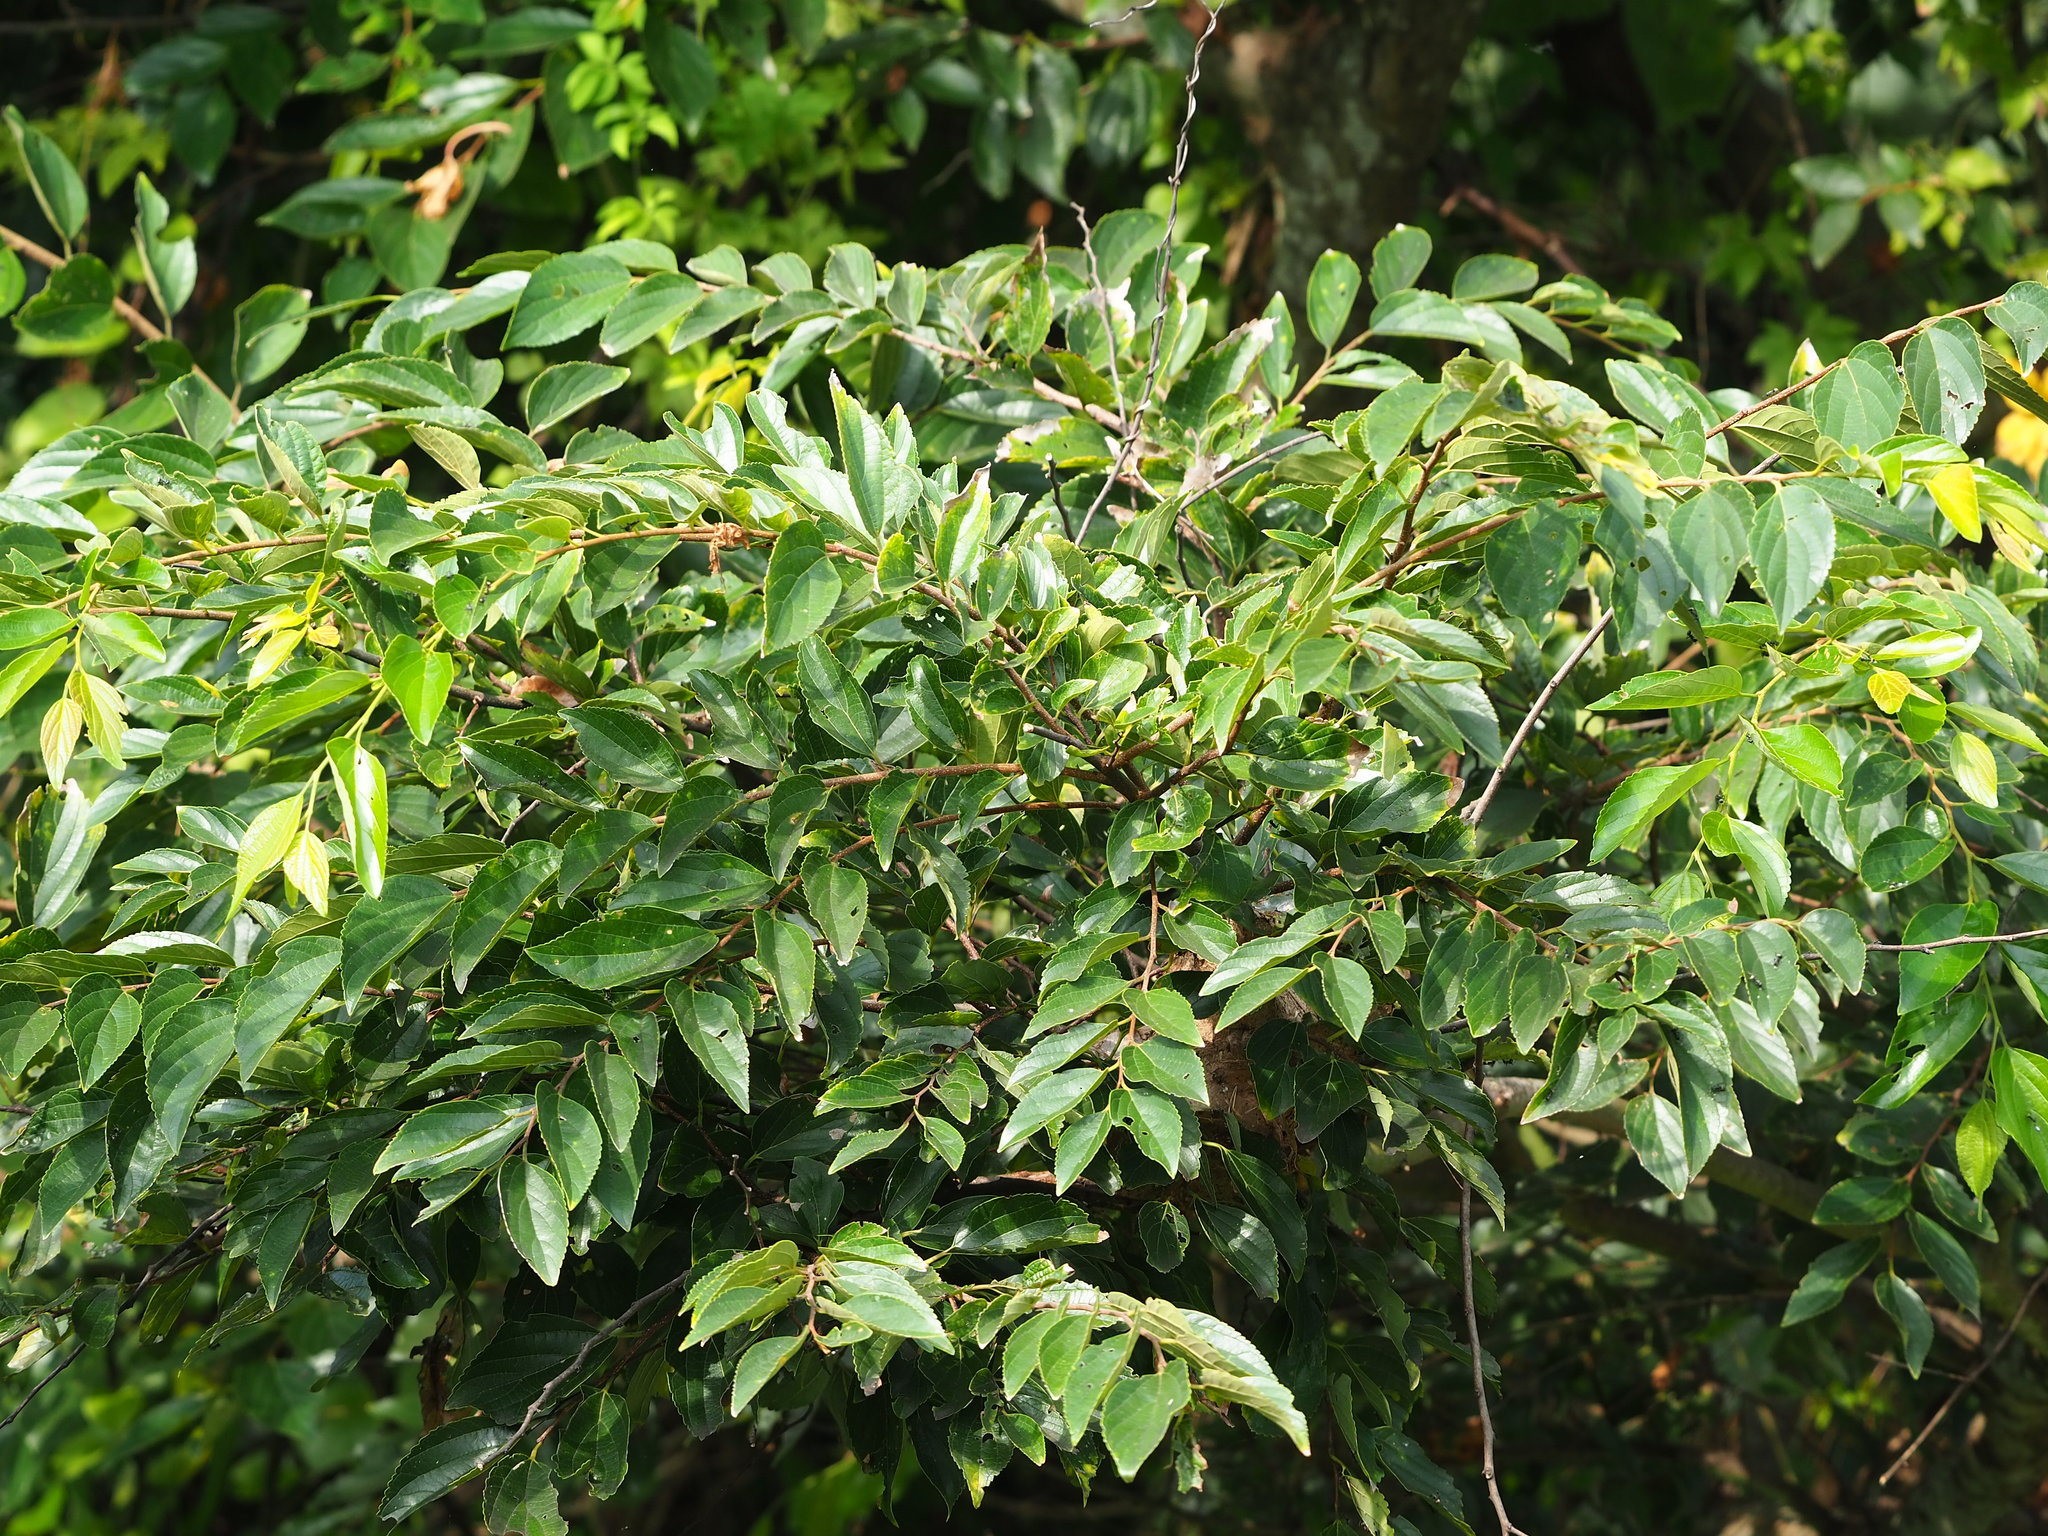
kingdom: Plantae
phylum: Tracheophyta
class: Magnoliopsida
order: Rosales
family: Cannabaceae
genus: Celtis
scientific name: Celtis sinensis
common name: Chinese hackberry
